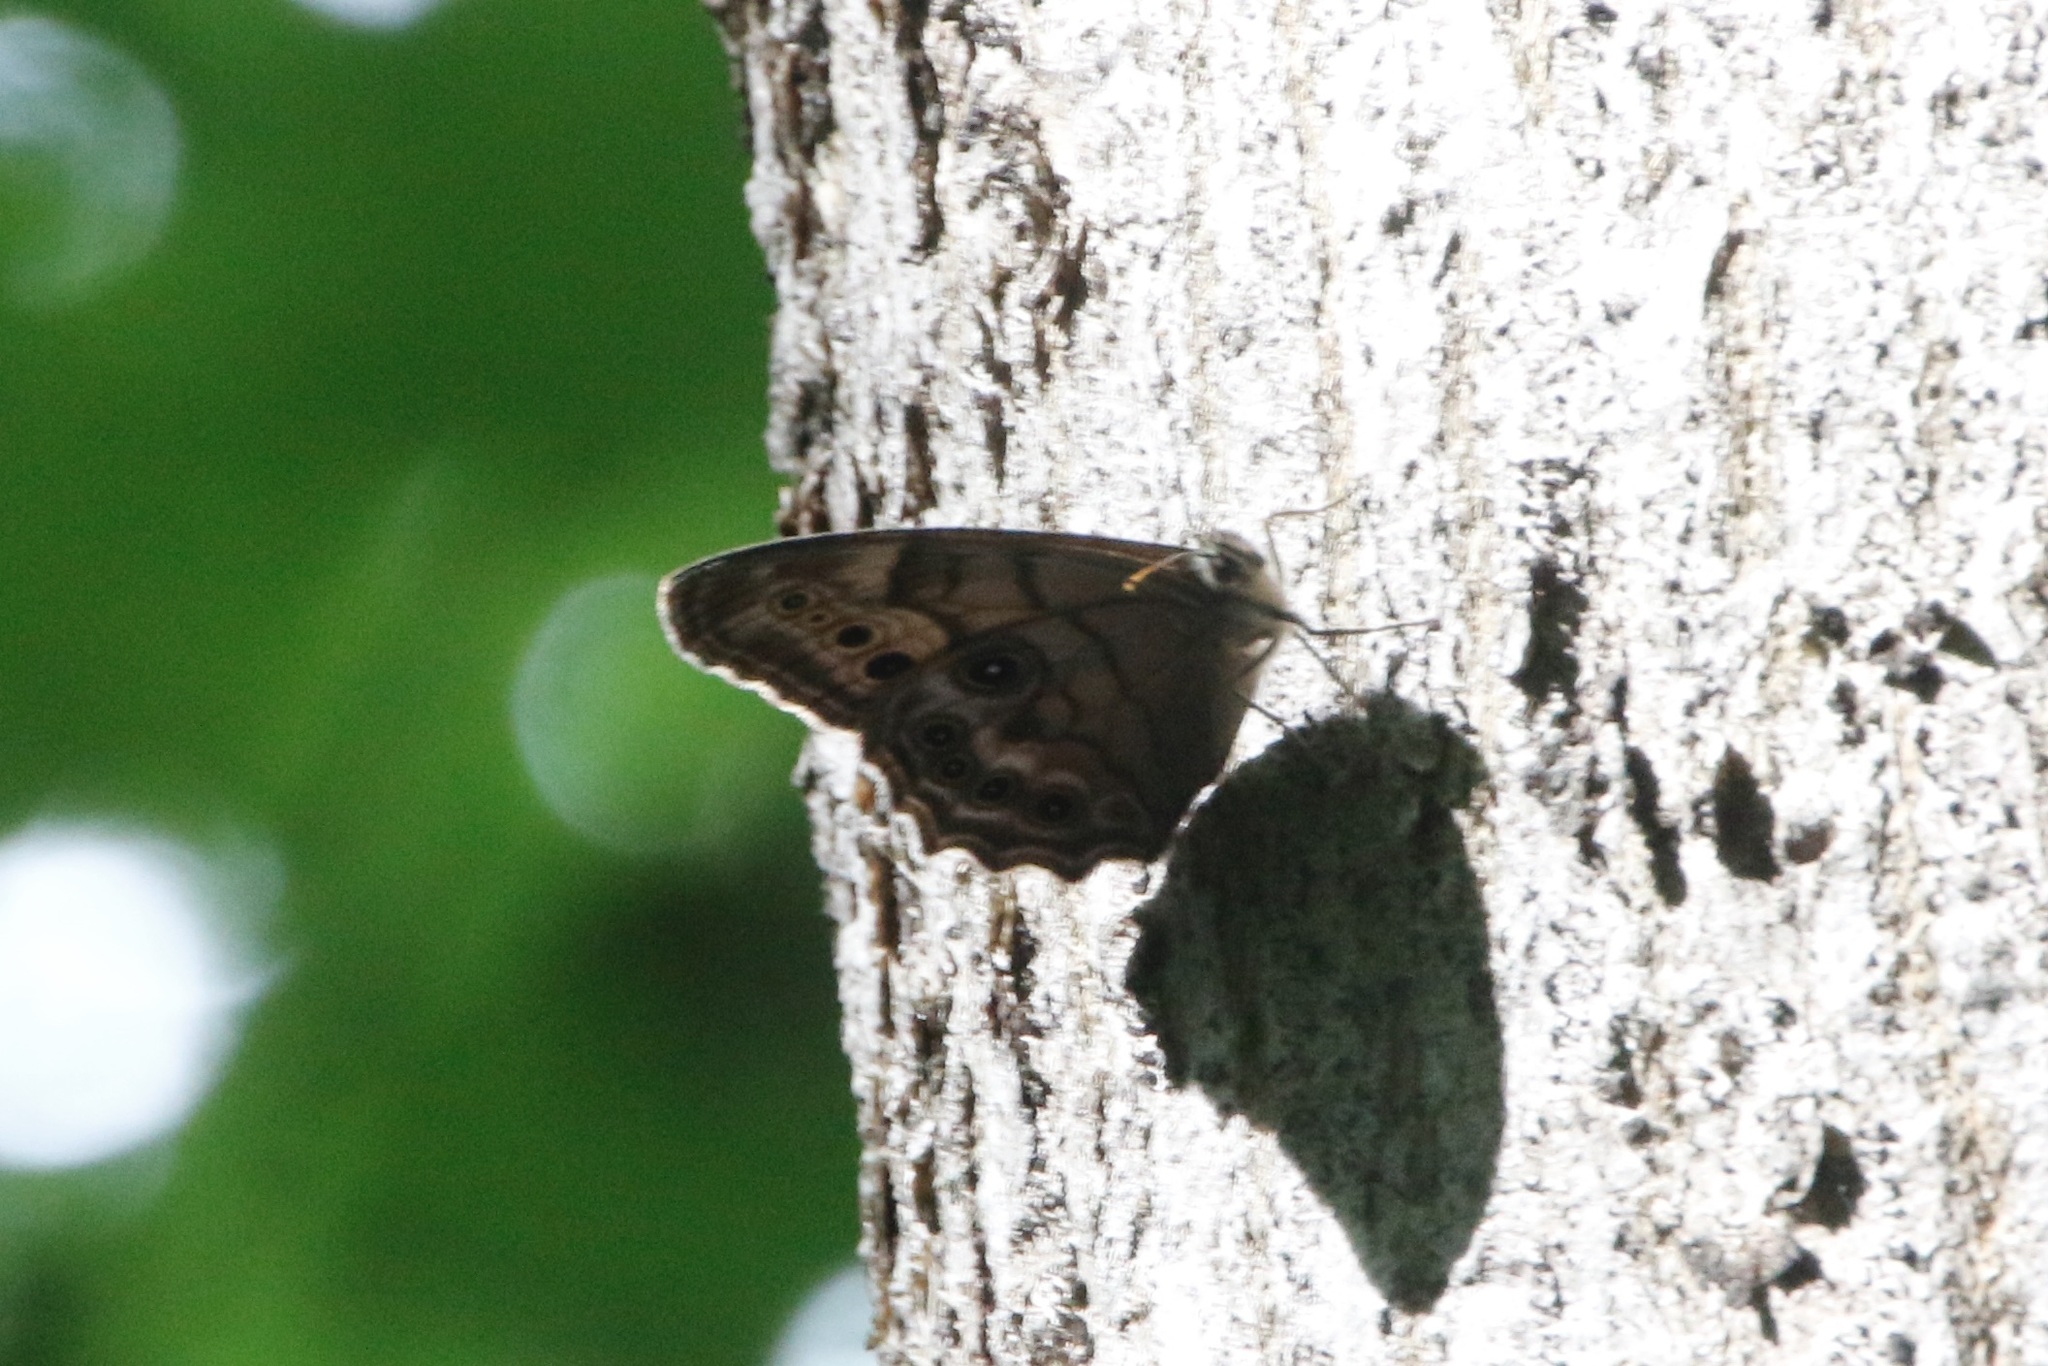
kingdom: Animalia
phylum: Arthropoda
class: Insecta
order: Lepidoptera
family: Nymphalidae
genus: Lethe
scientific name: Lethe anthedon
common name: Northern pearly-eye
